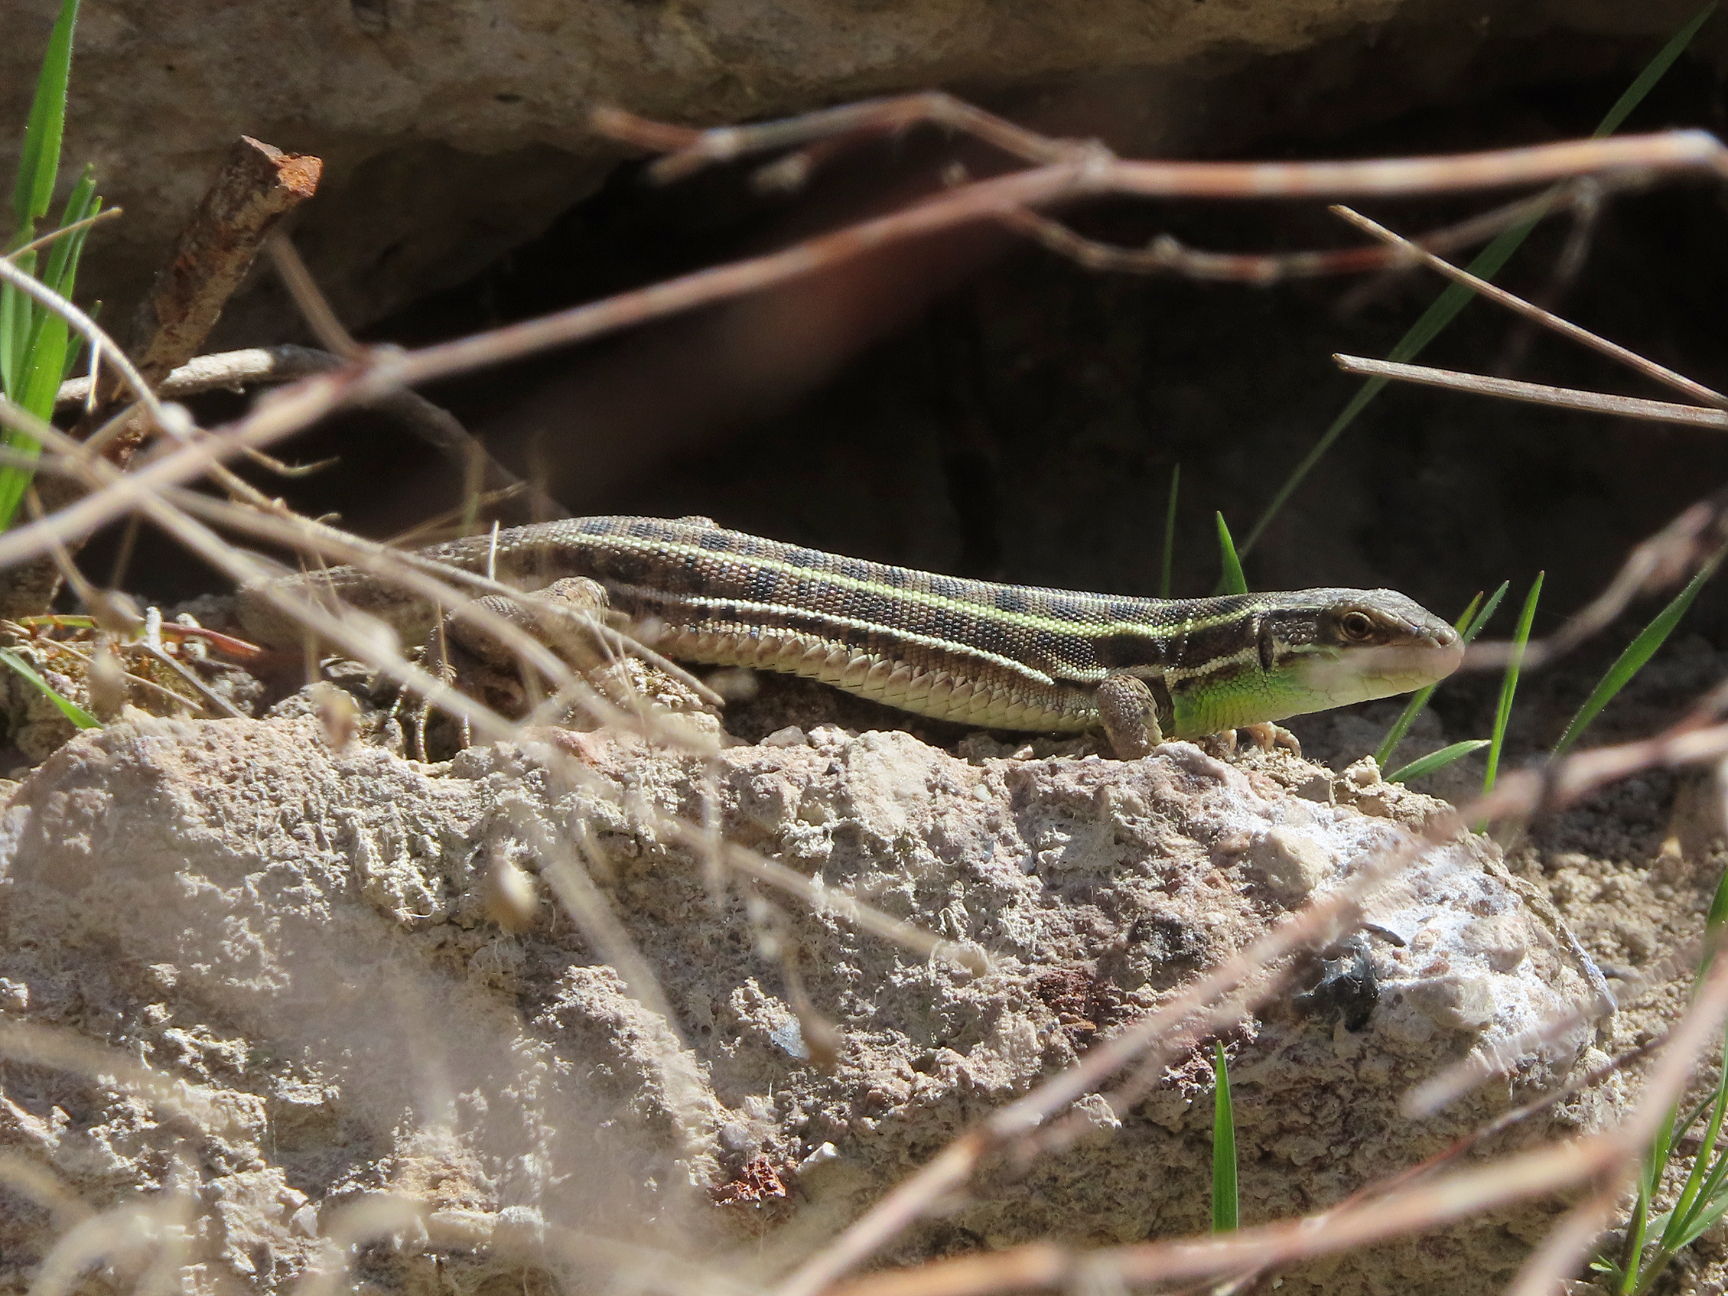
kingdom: Animalia
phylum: Chordata
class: Squamata
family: Lacertidae
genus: Lacerta
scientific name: Lacerta strigata
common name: Caspian green lizard
